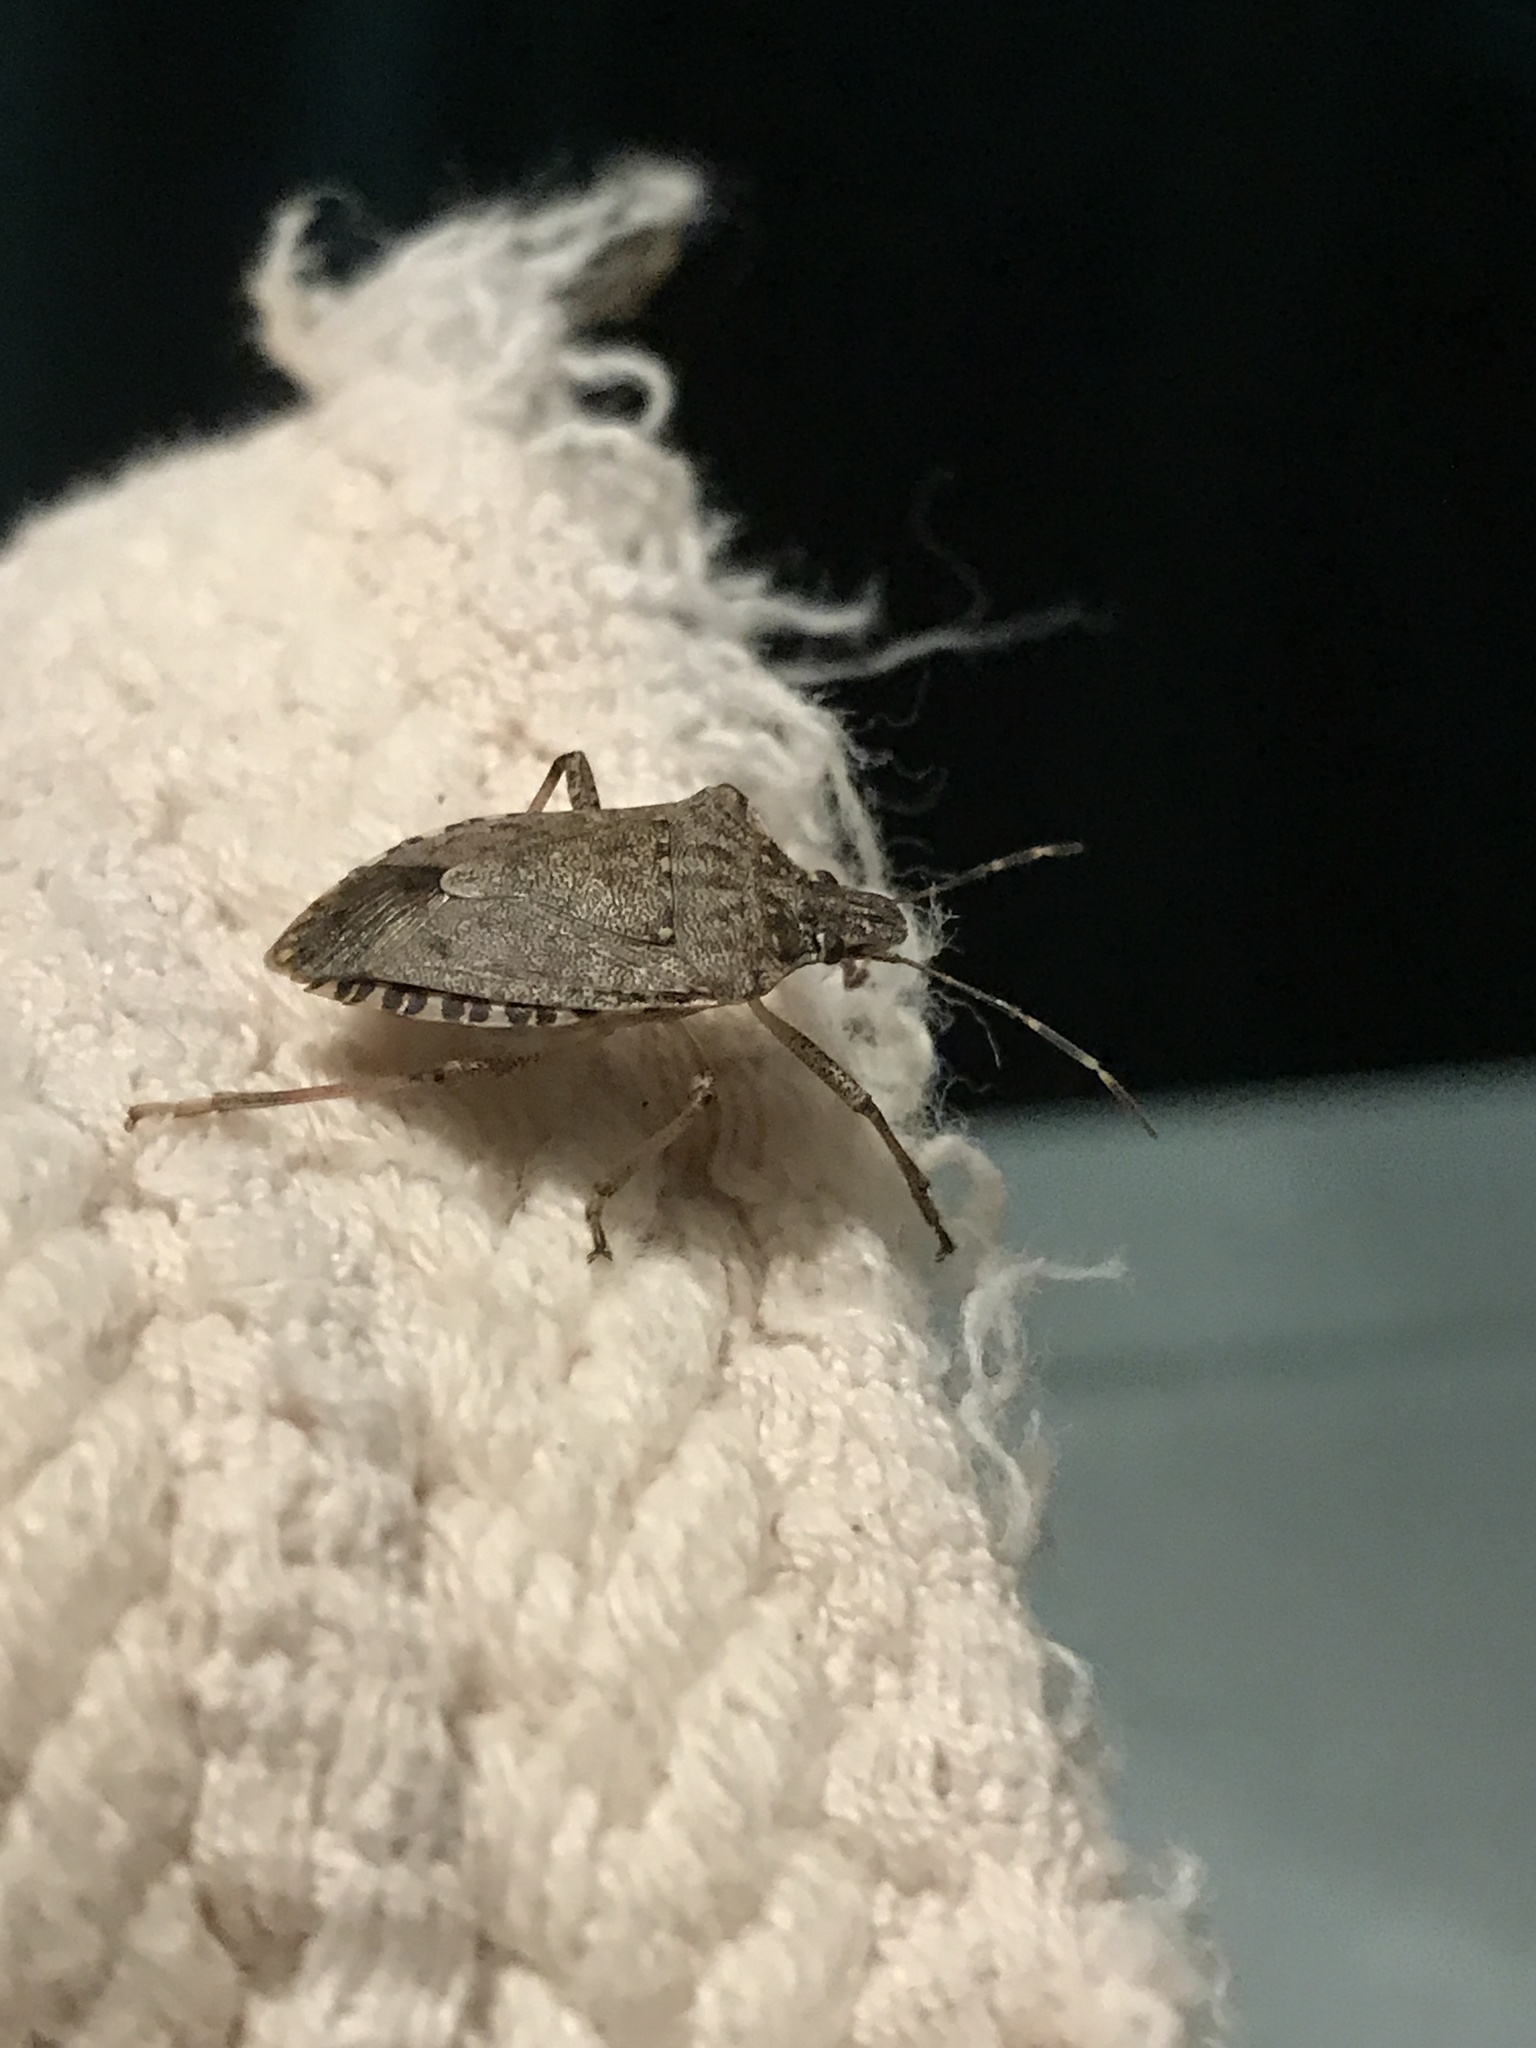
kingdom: Animalia
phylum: Arthropoda
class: Insecta
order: Hemiptera
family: Pentatomidae
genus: Halyomorpha
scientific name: Halyomorpha halys
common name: Brown marmorated stink bug
